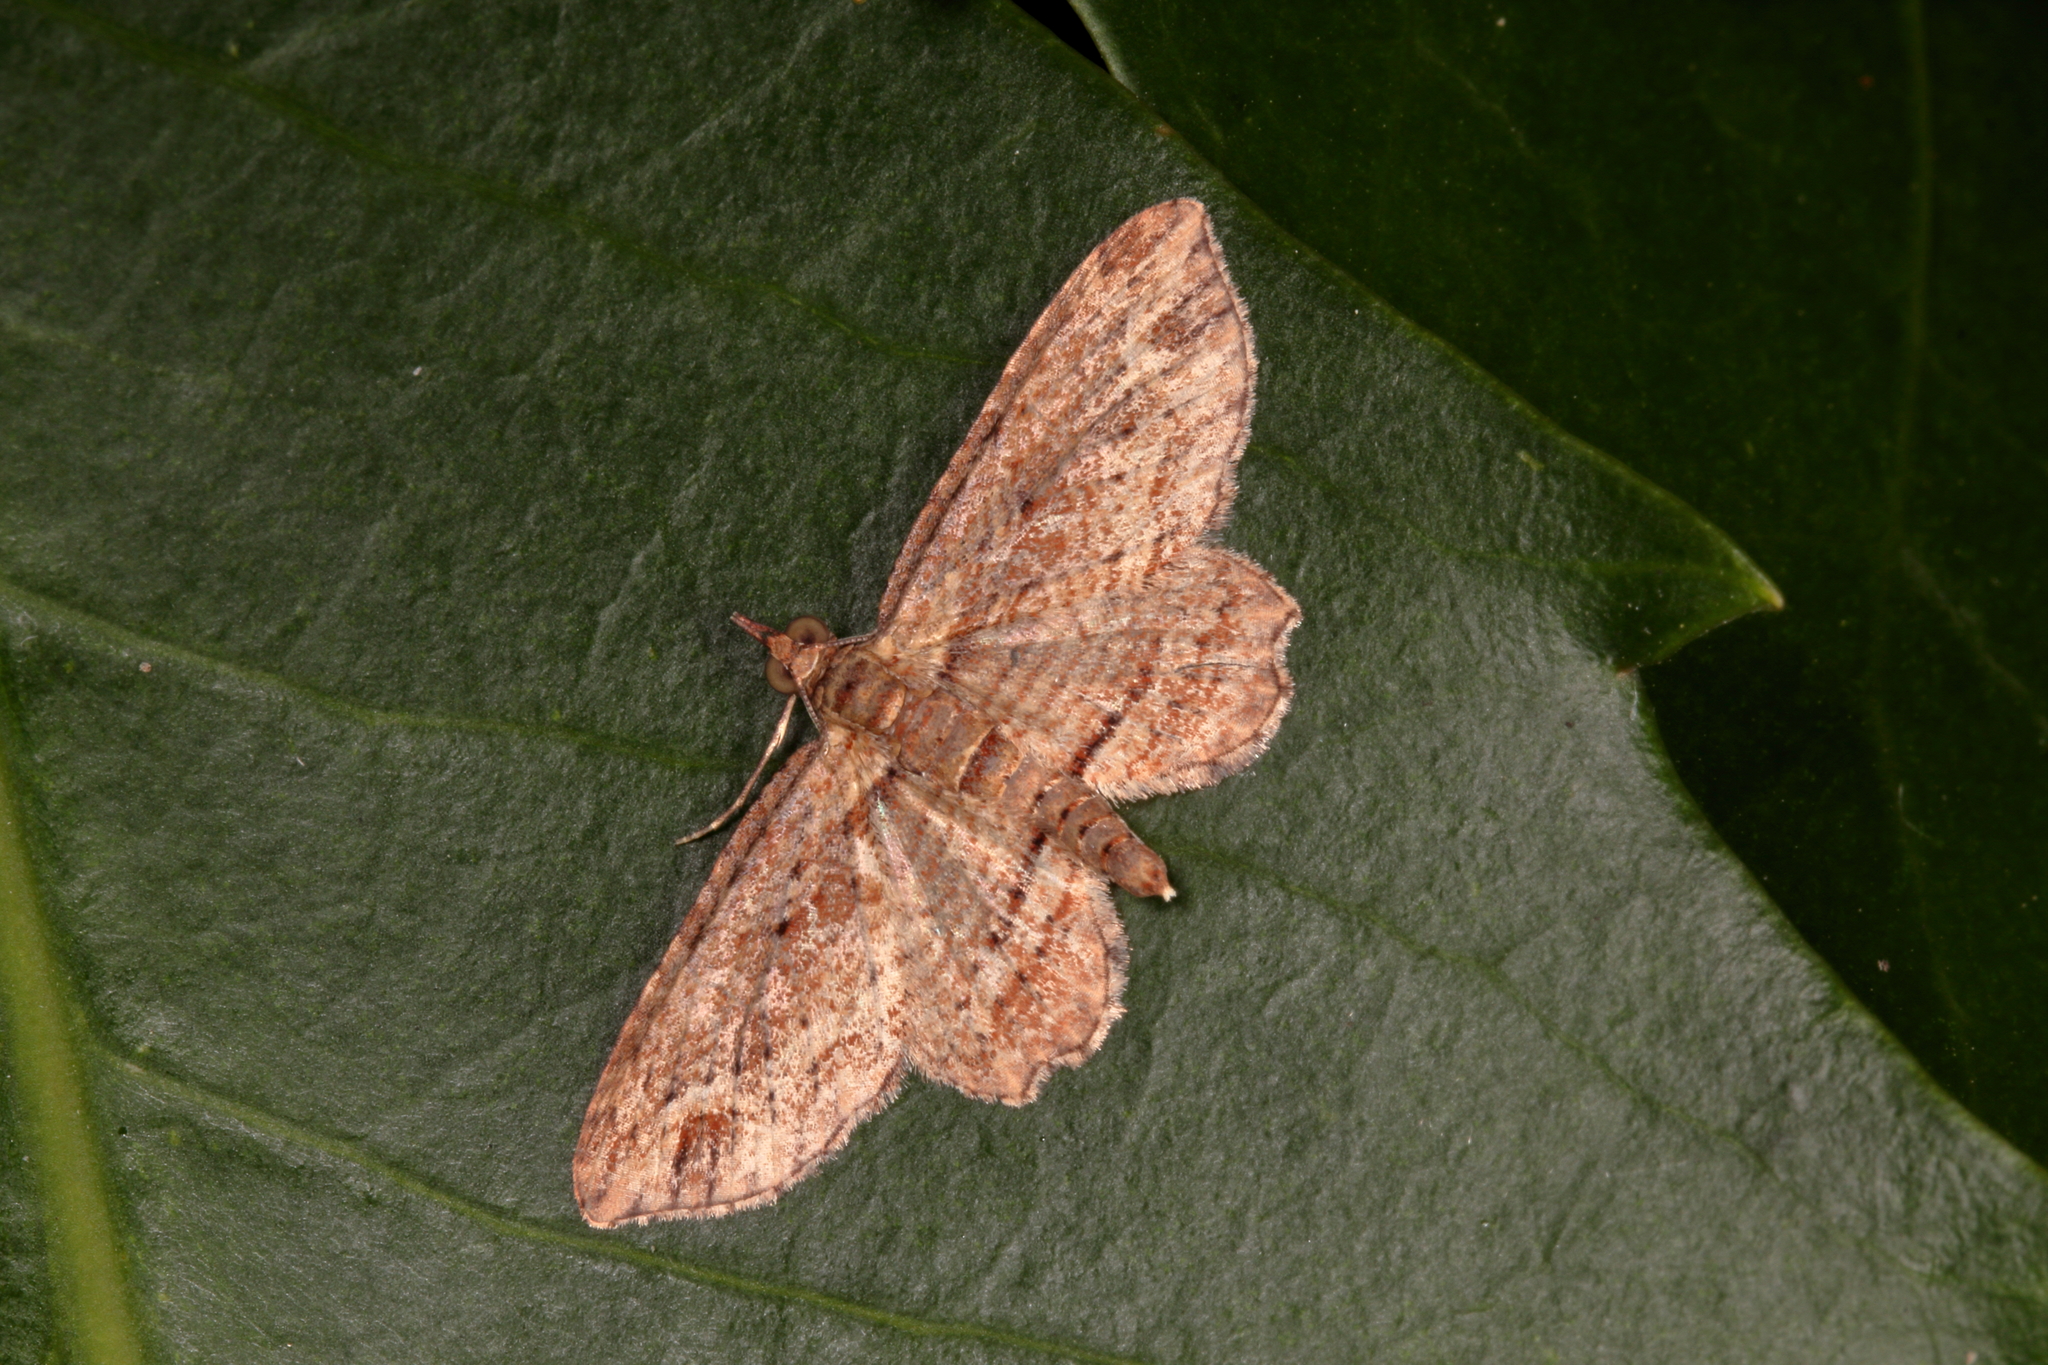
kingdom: Animalia
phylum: Arthropoda
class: Insecta
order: Lepidoptera
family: Geometridae
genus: Chloroclystis
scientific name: Chloroclystis filata
